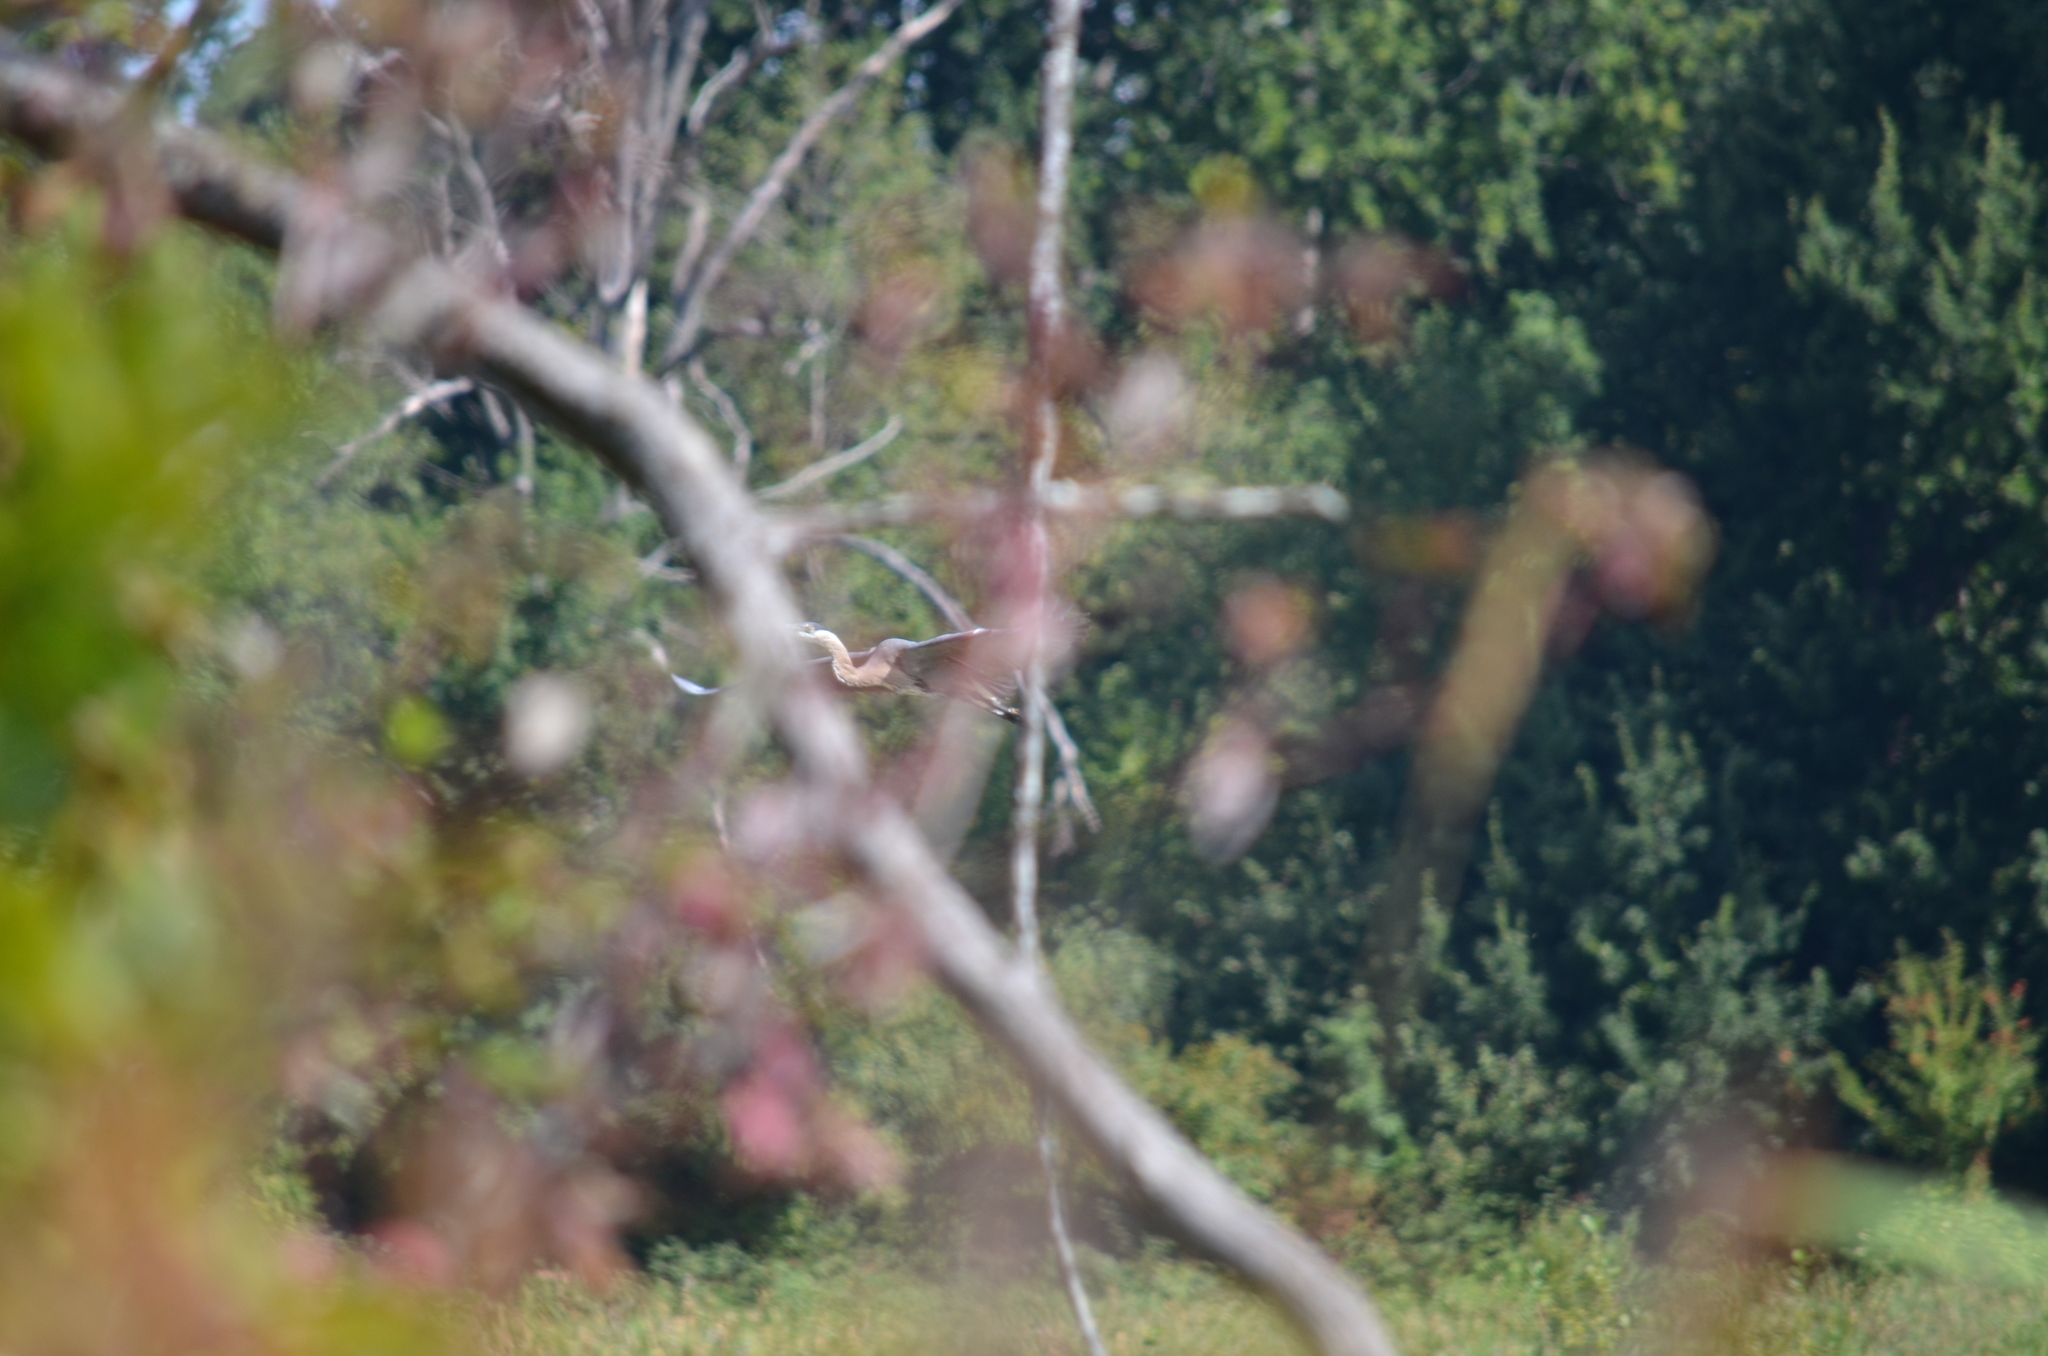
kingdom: Animalia
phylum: Chordata
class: Aves
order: Pelecaniformes
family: Ardeidae
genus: Ardea
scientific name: Ardea herodias
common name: Great blue heron
